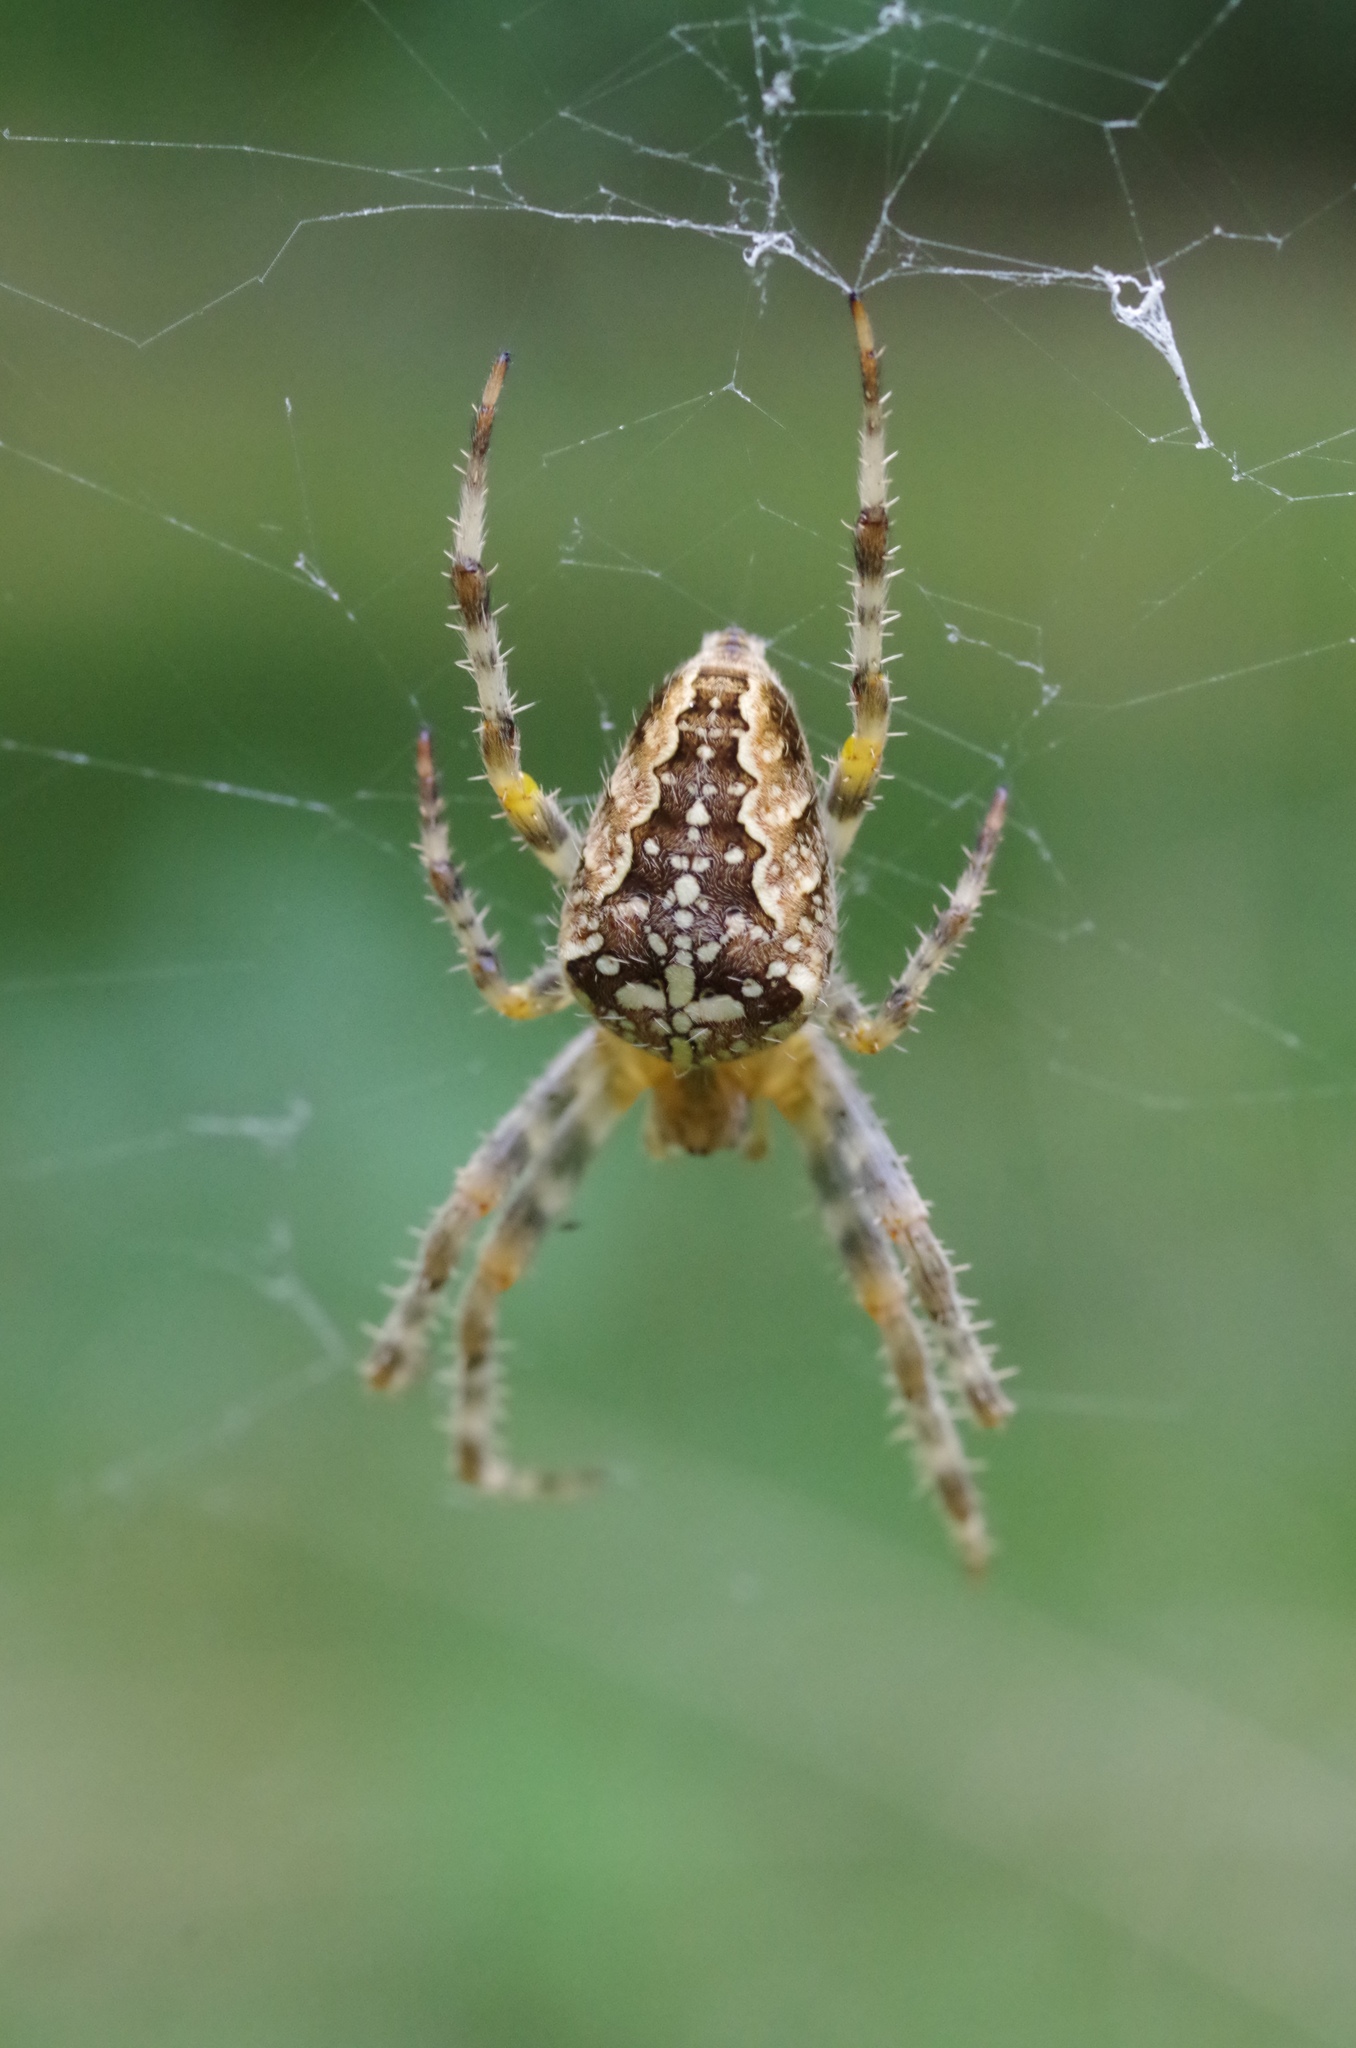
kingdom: Animalia
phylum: Arthropoda
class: Arachnida
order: Araneae
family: Araneidae
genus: Araneus
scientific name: Araneus diadematus
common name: Cross orbweaver
